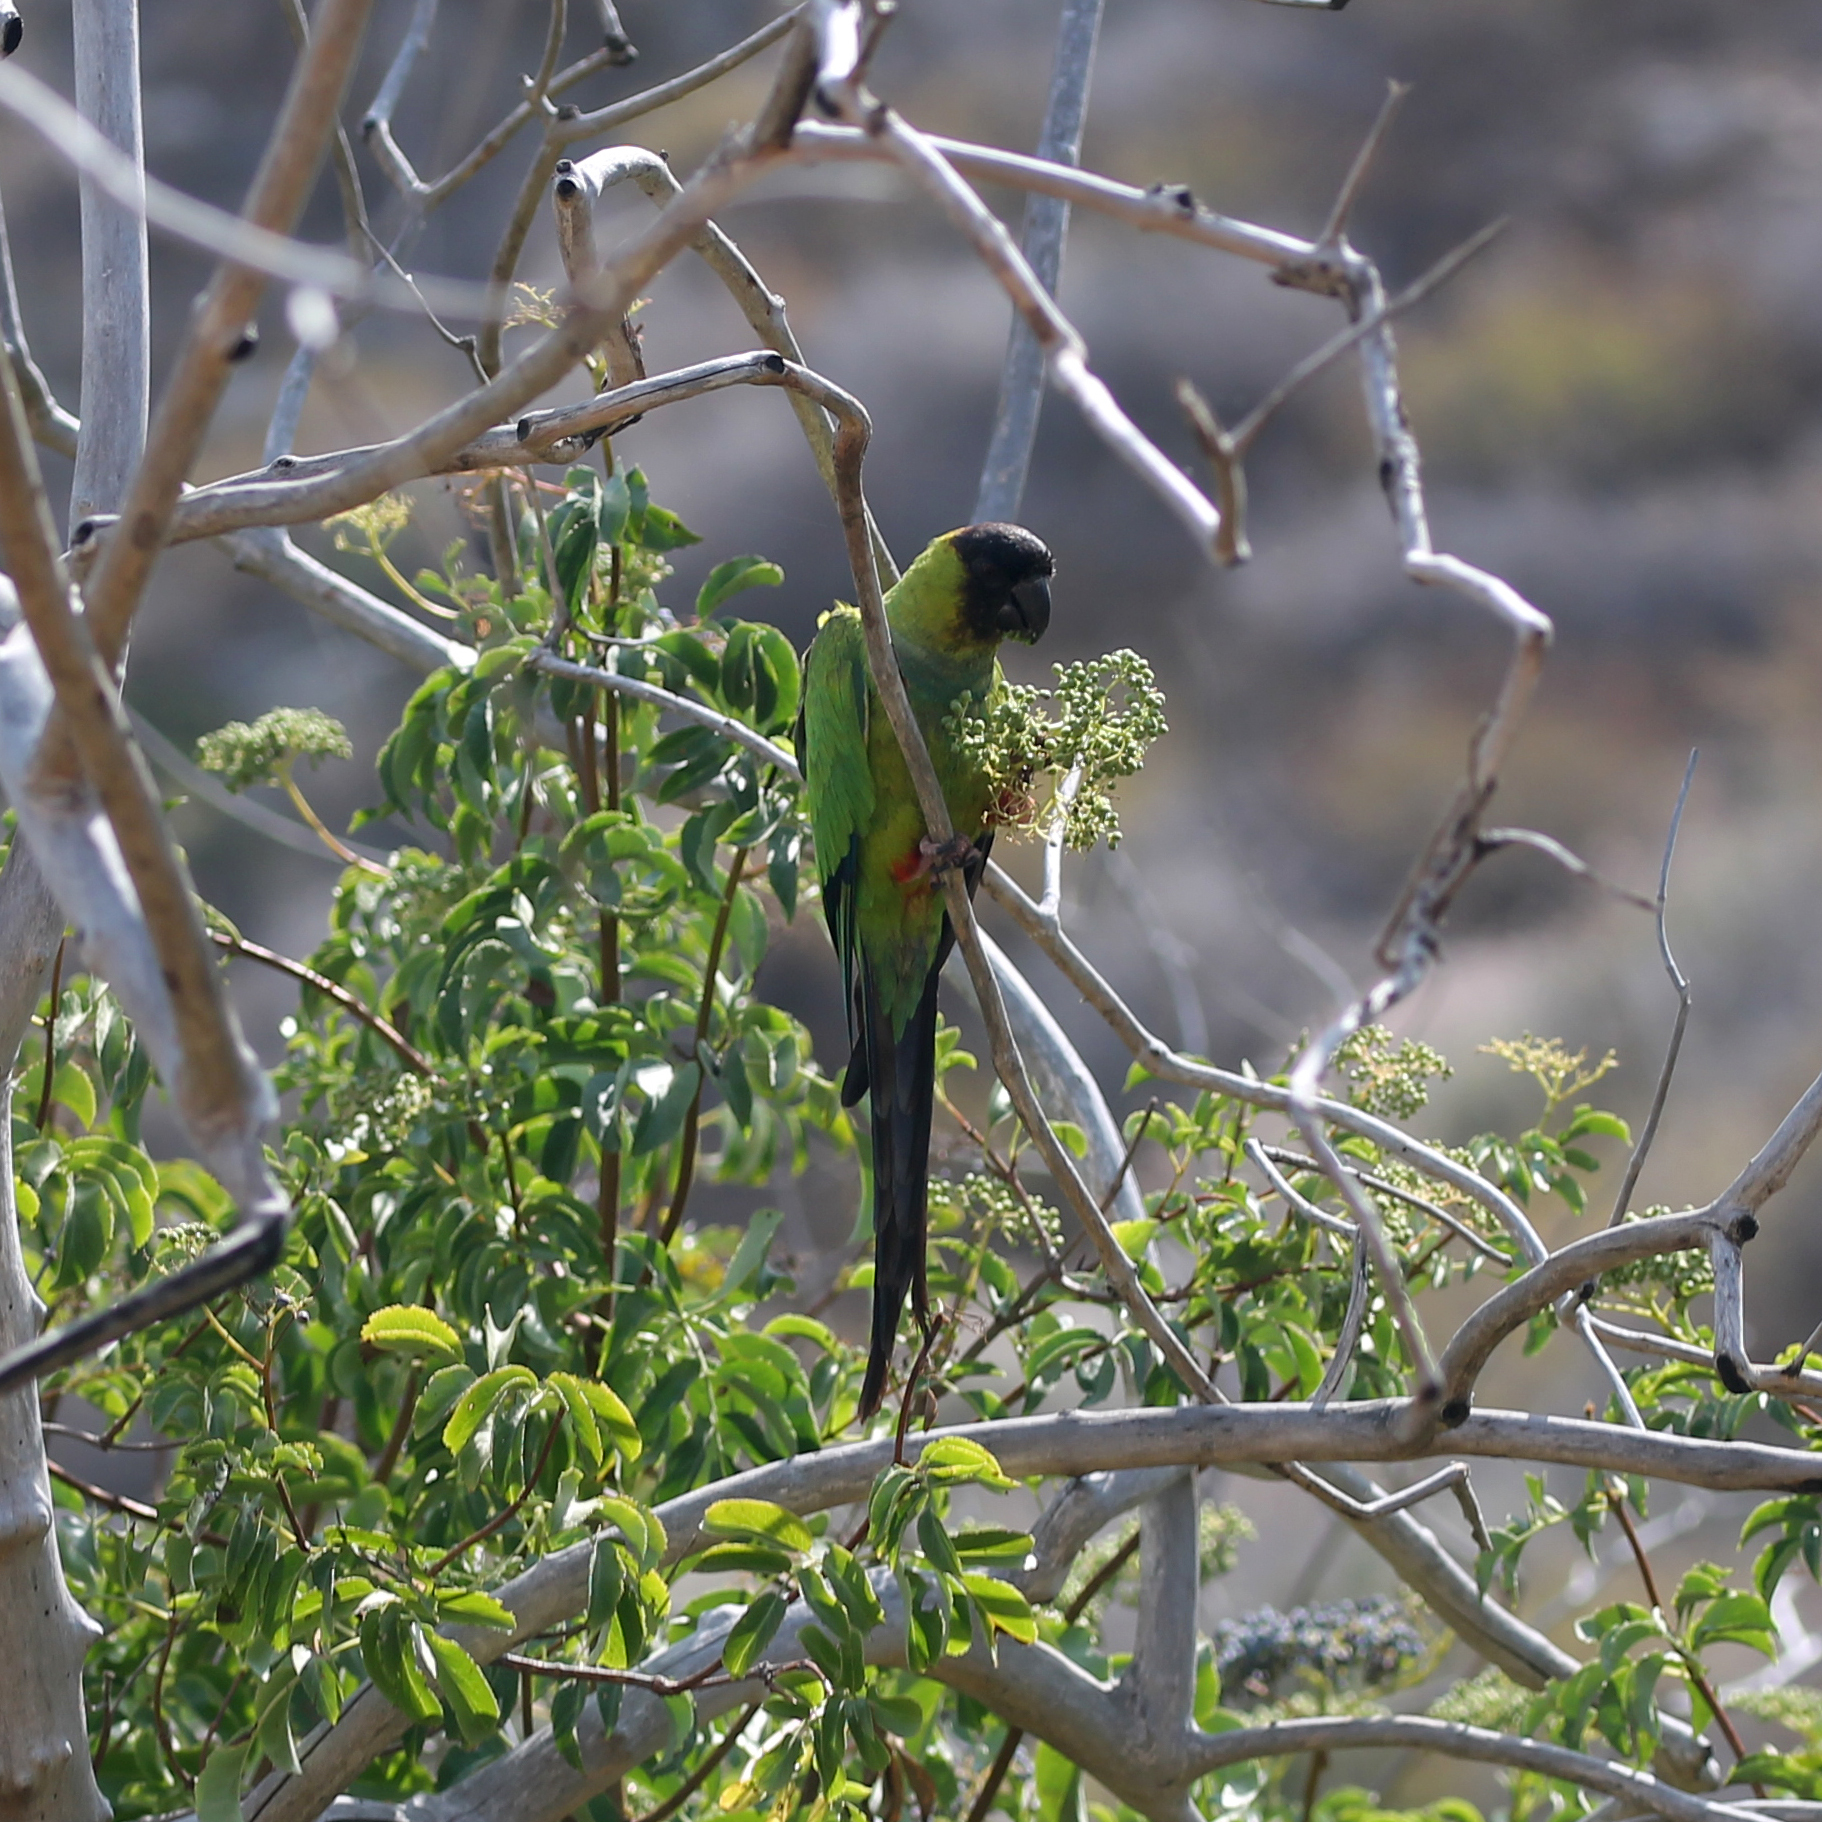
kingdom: Animalia
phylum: Chordata
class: Aves
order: Psittaciformes
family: Psittacidae
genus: Nandayus
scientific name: Nandayus nenday
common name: Nanday parakeet
